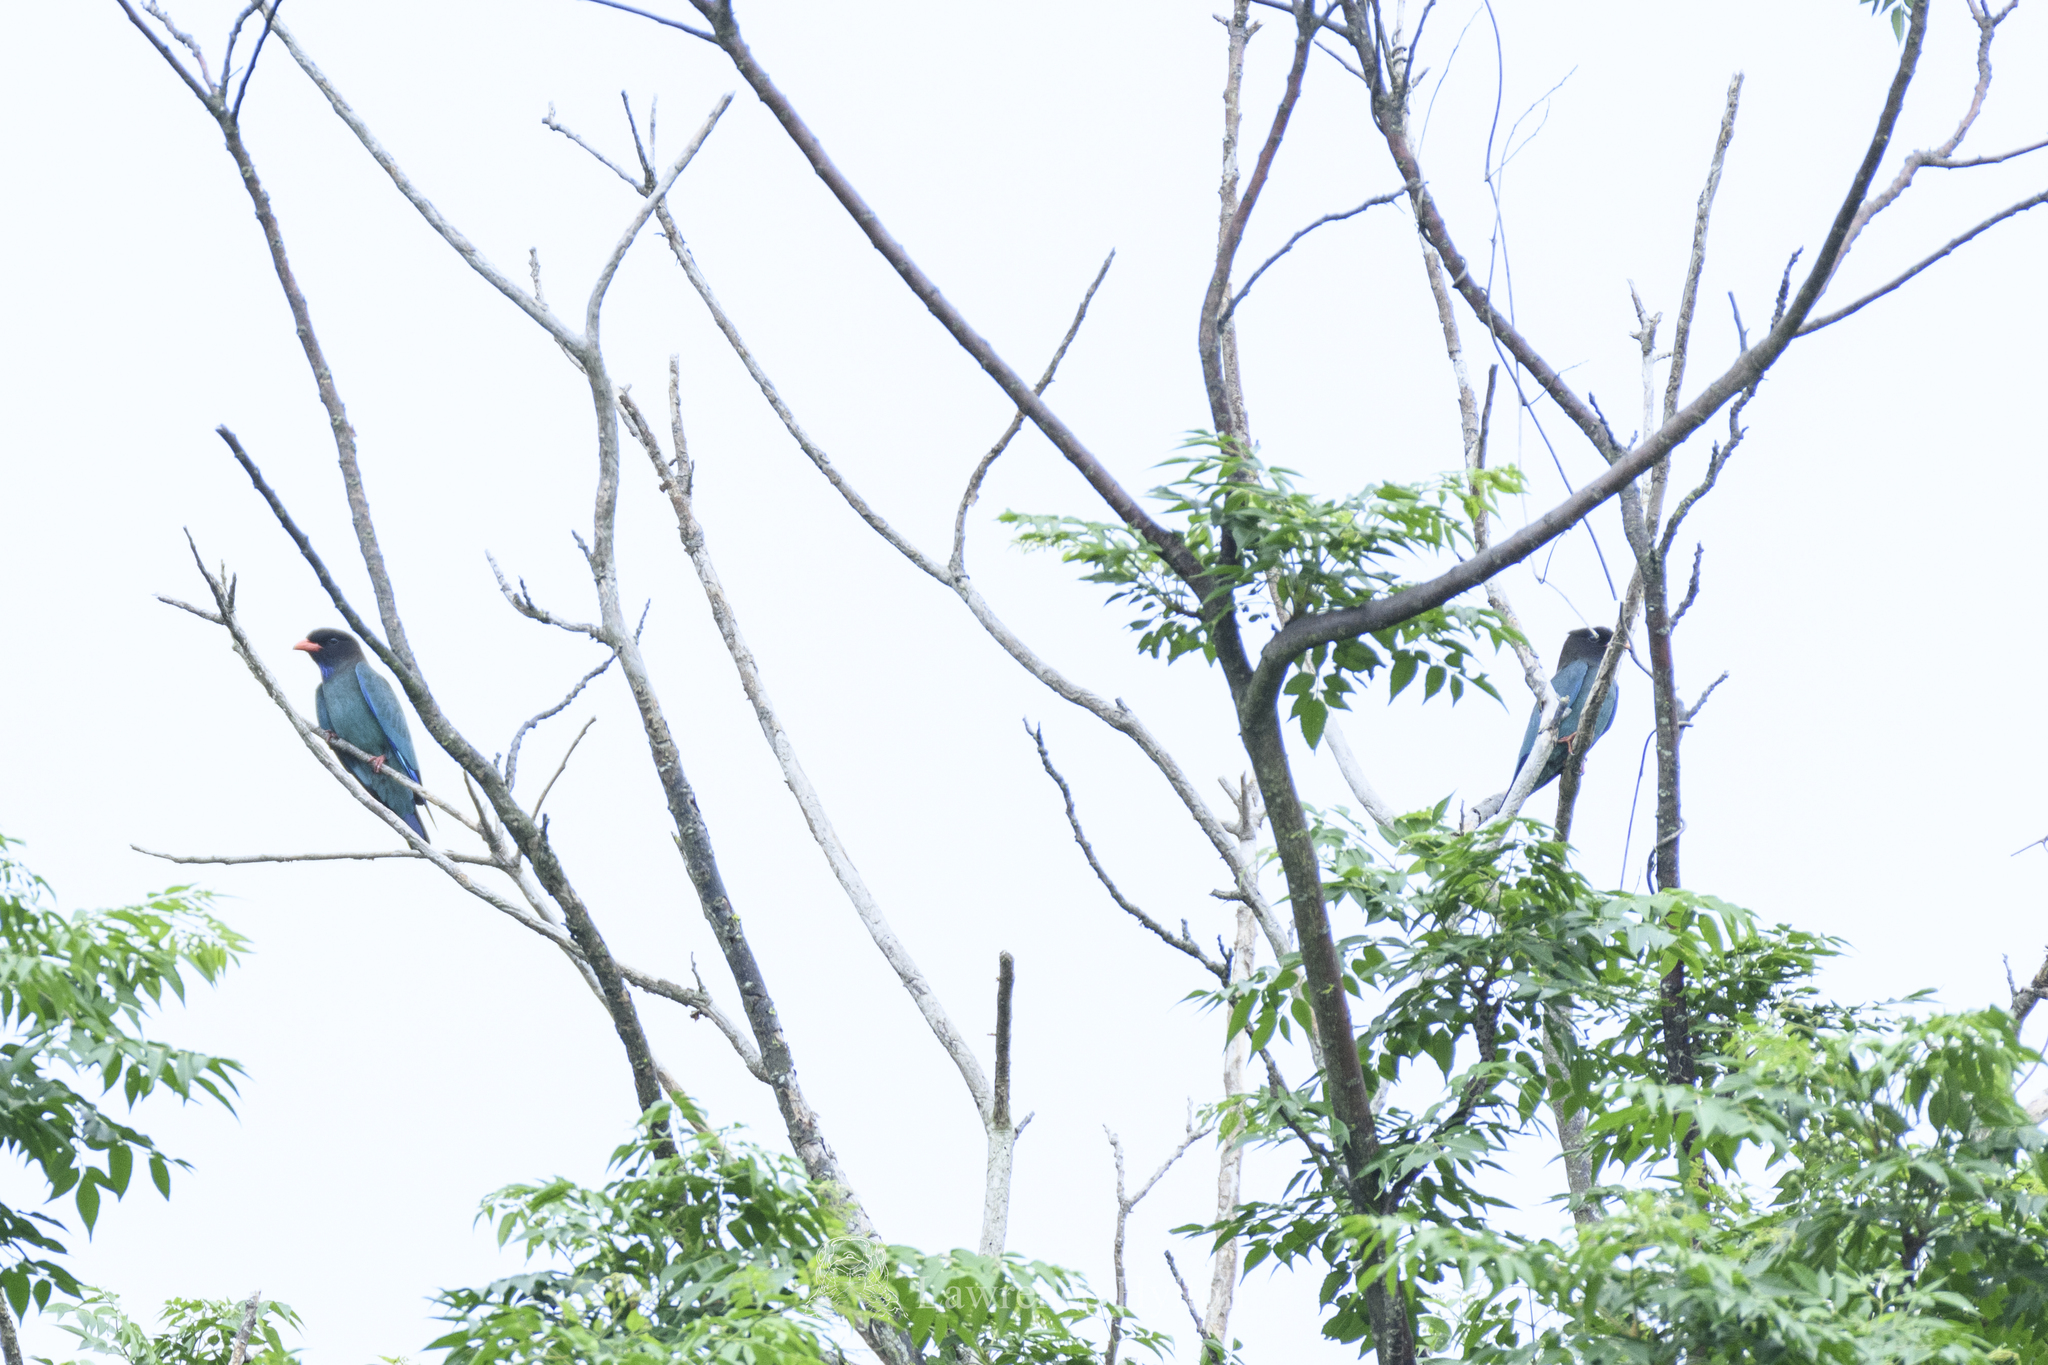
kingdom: Animalia
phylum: Chordata
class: Aves
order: Coraciiformes
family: Coraciidae
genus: Eurystomus
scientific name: Eurystomus orientalis
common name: Oriental dollarbird
